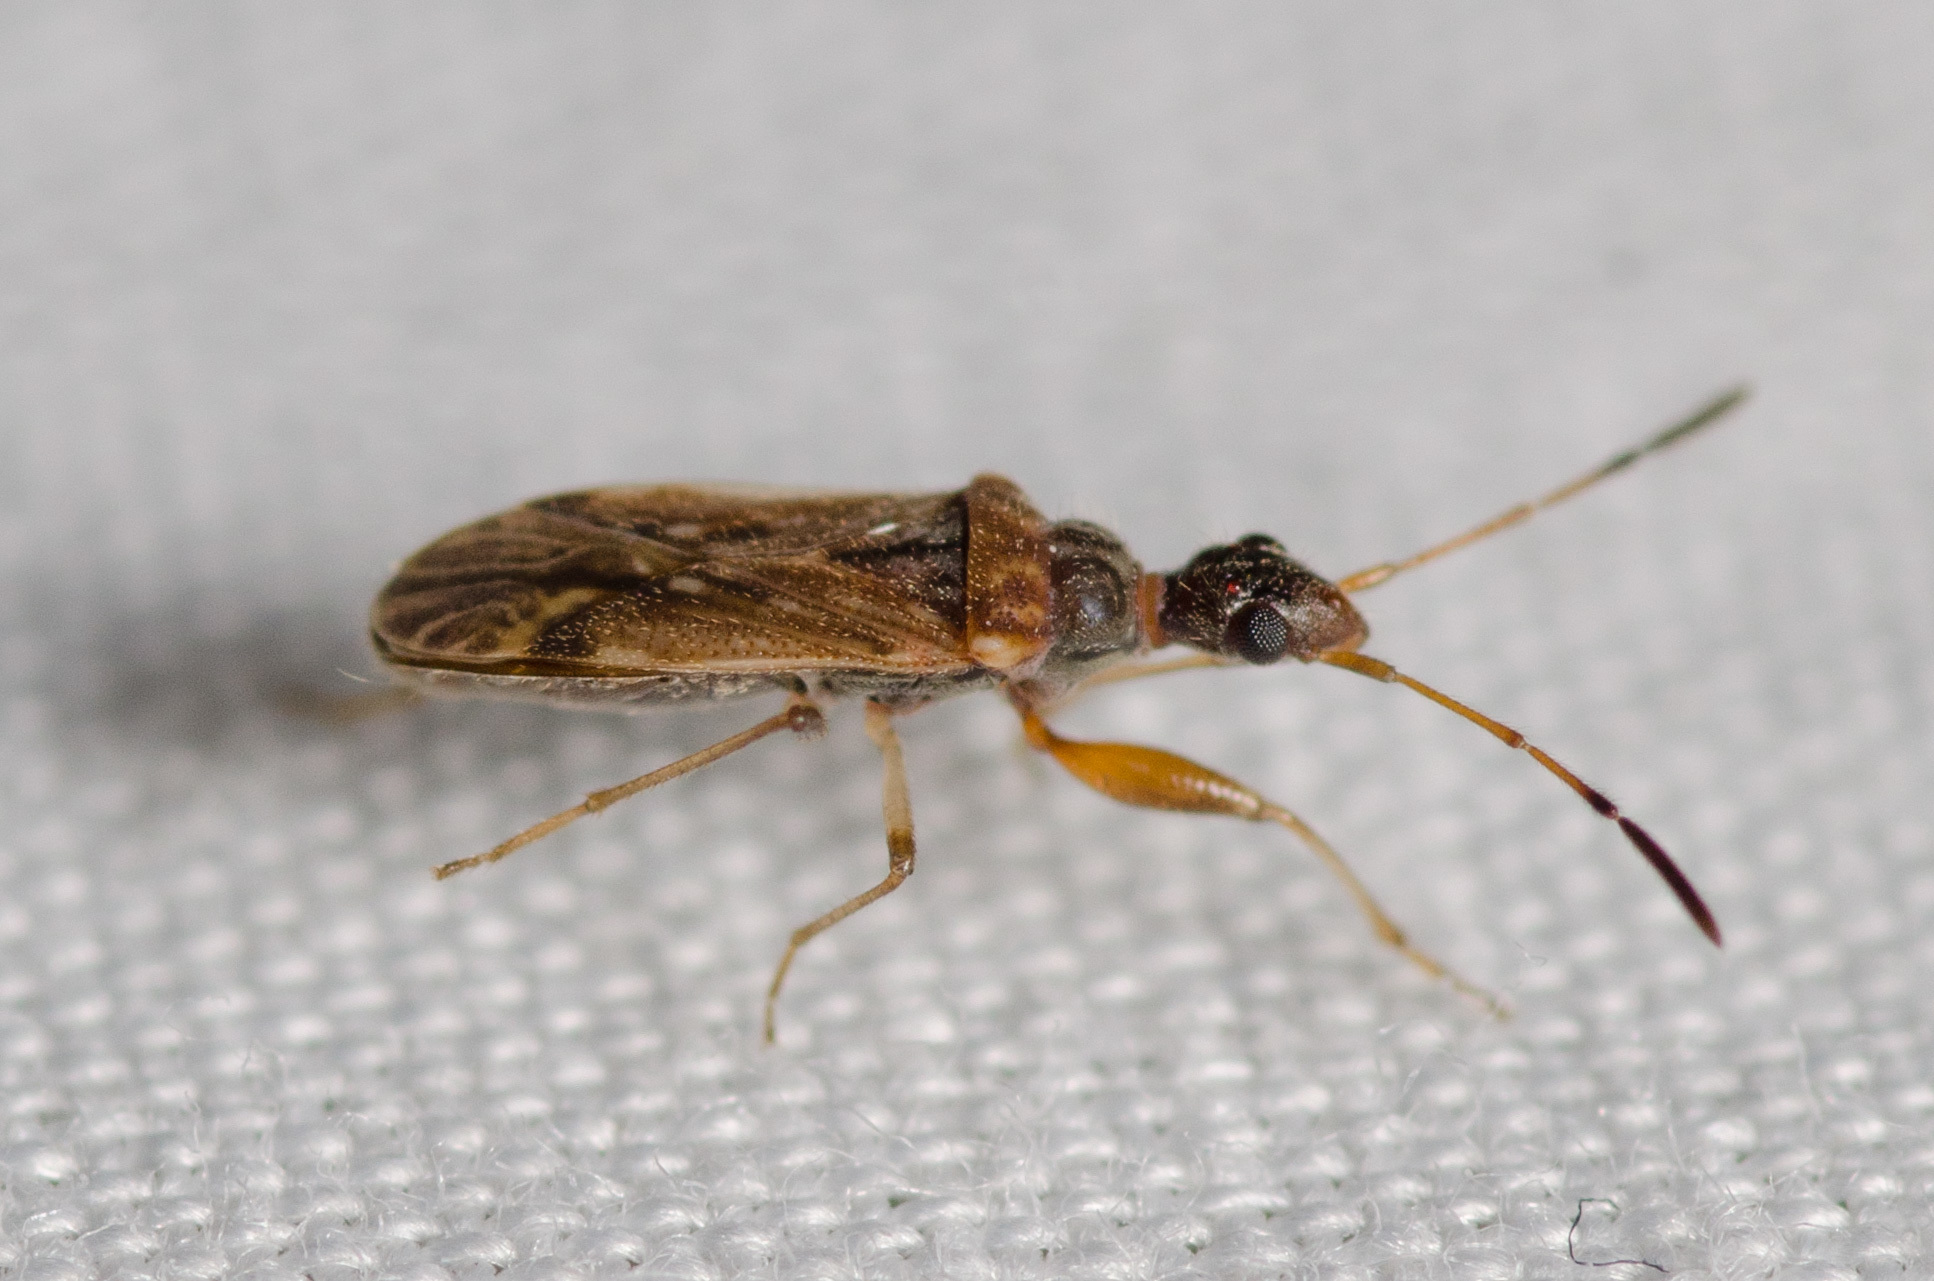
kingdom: Animalia
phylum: Arthropoda
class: Insecta
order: Hemiptera
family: Rhyparochromidae
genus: Heraeus
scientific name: Heraeus plebejus
